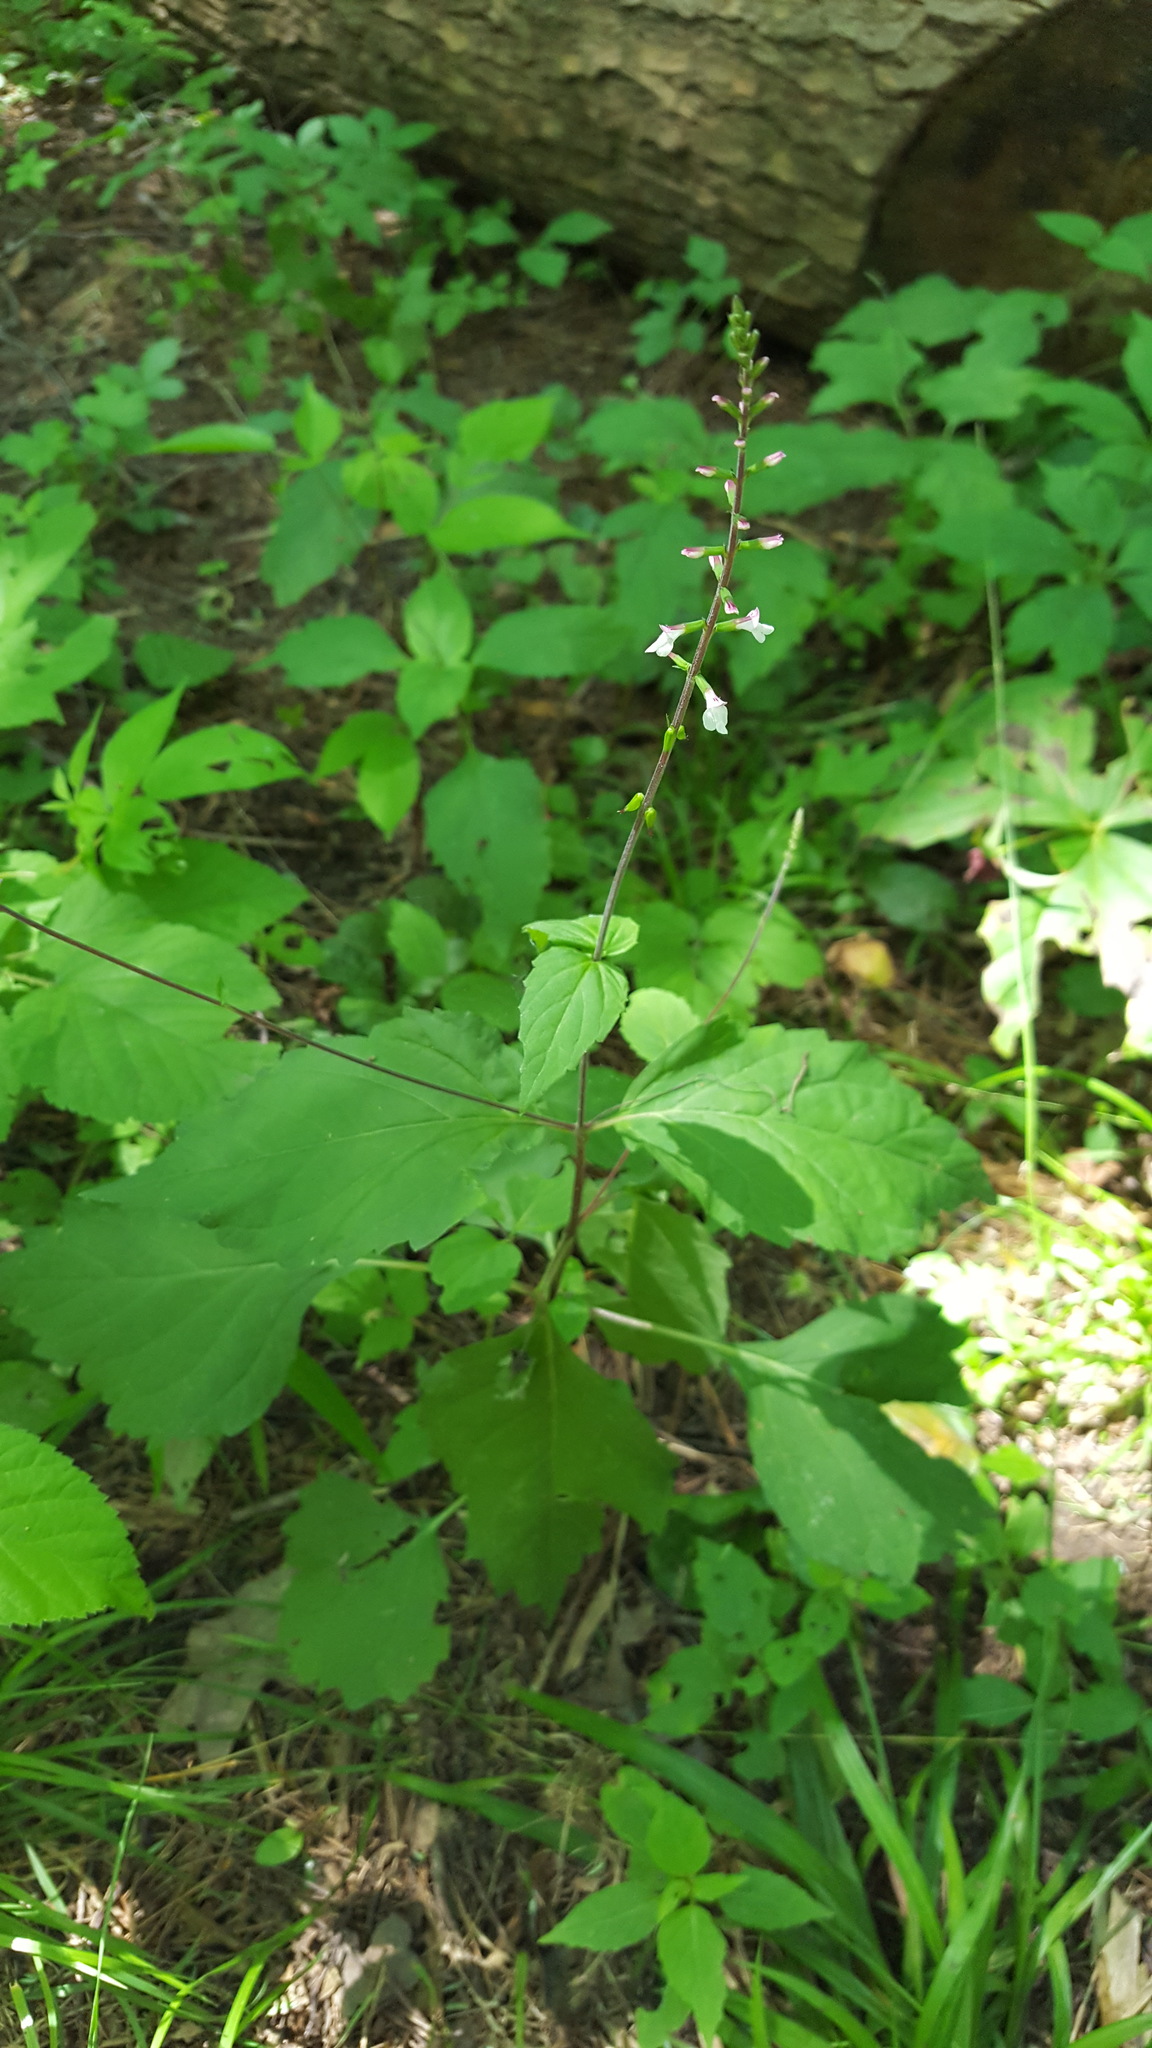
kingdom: Plantae
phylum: Tracheophyta
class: Magnoliopsida
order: Lamiales
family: Phrymaceae
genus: Phryma
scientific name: Phryma leptostachya
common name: American lopseed
